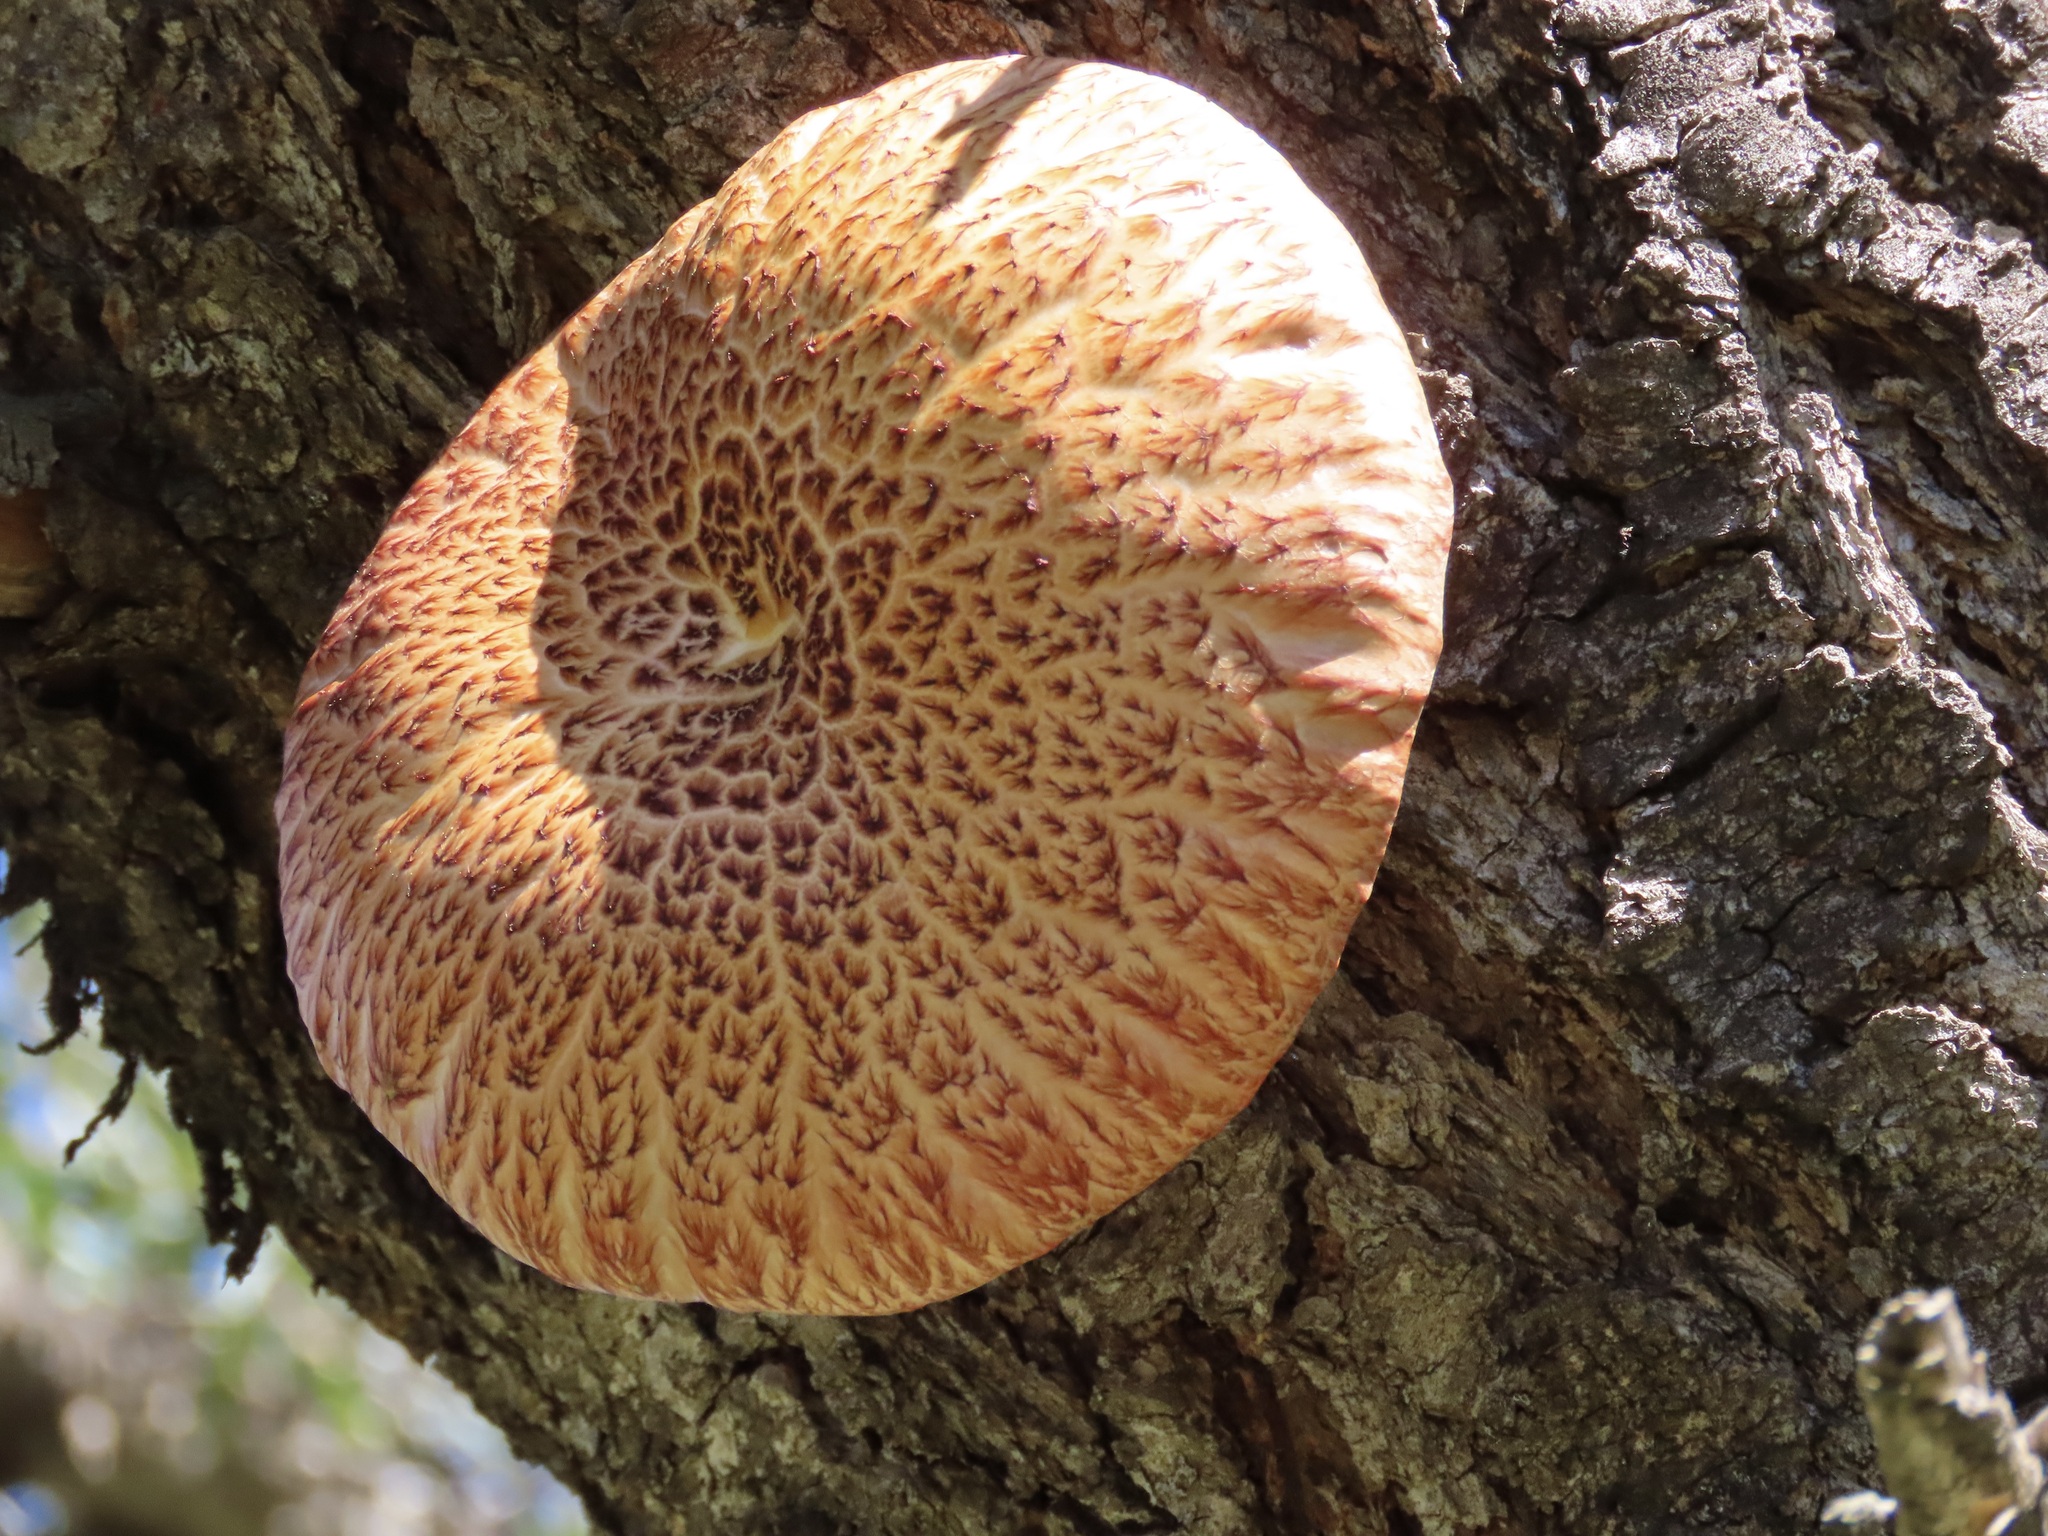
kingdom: Fungi
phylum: Basidiomycota
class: Agaricomycetes
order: Agaricales
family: Hymenogastraceae
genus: Gymnopilus
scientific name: Gymnopilus luteofolius
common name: Yellow-gilled gymnopilus
